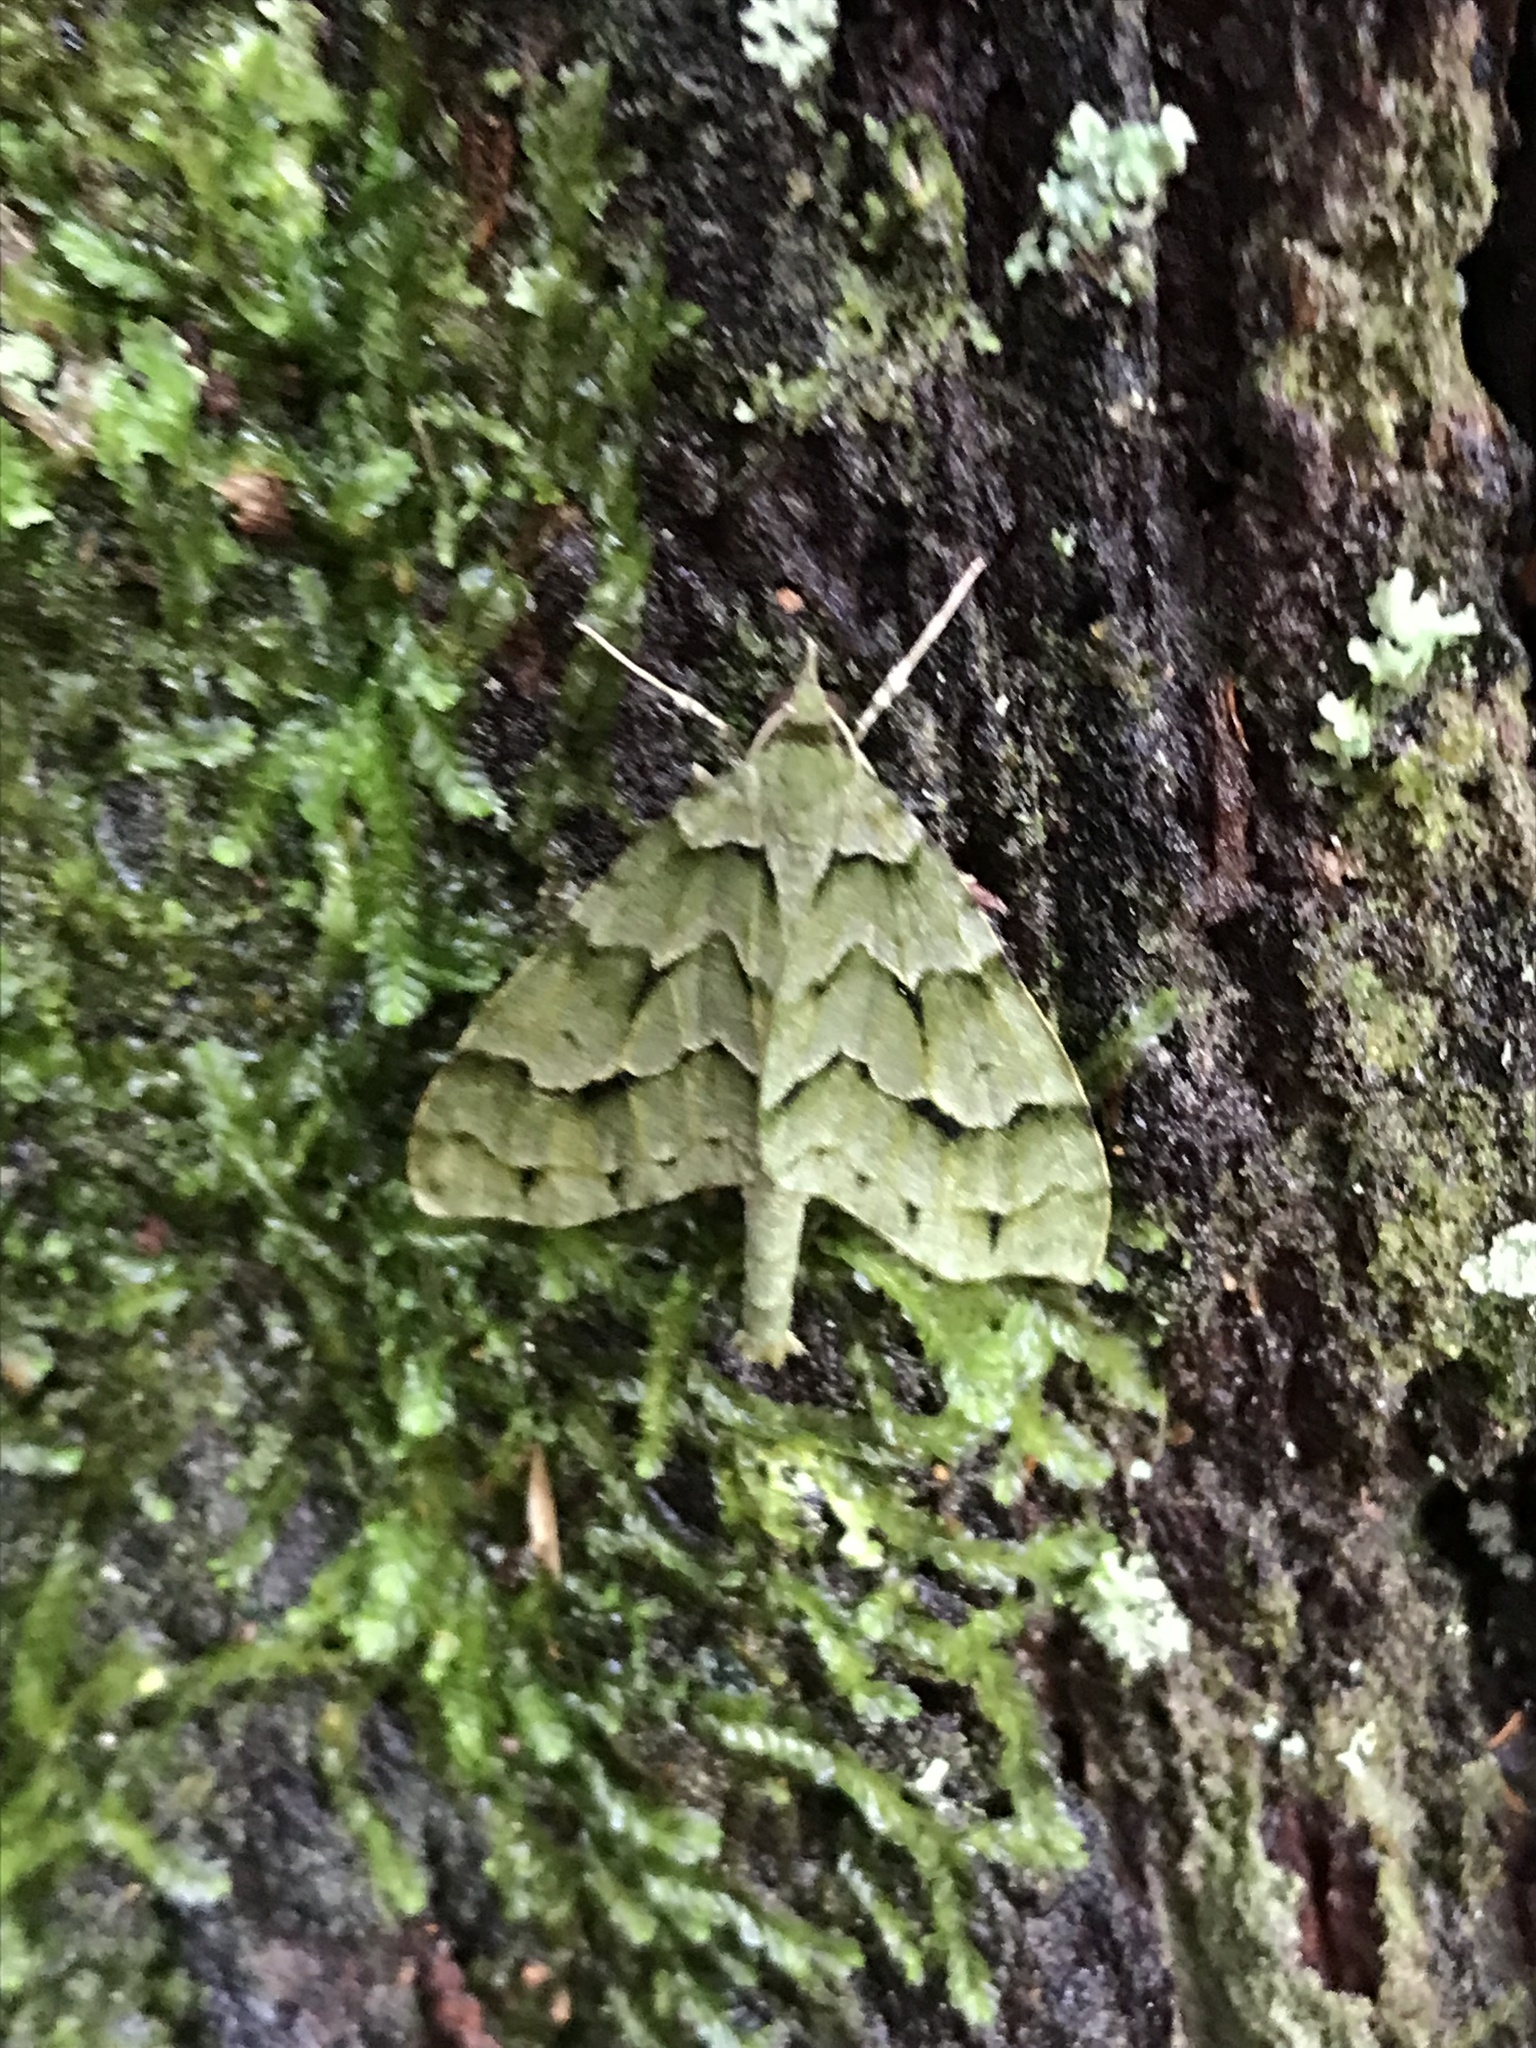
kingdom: Animalia
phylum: Arthropoda
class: Insecta
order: Lepidoptera
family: Geometridae
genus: Tatosoma
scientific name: Tatosoma lestevata
